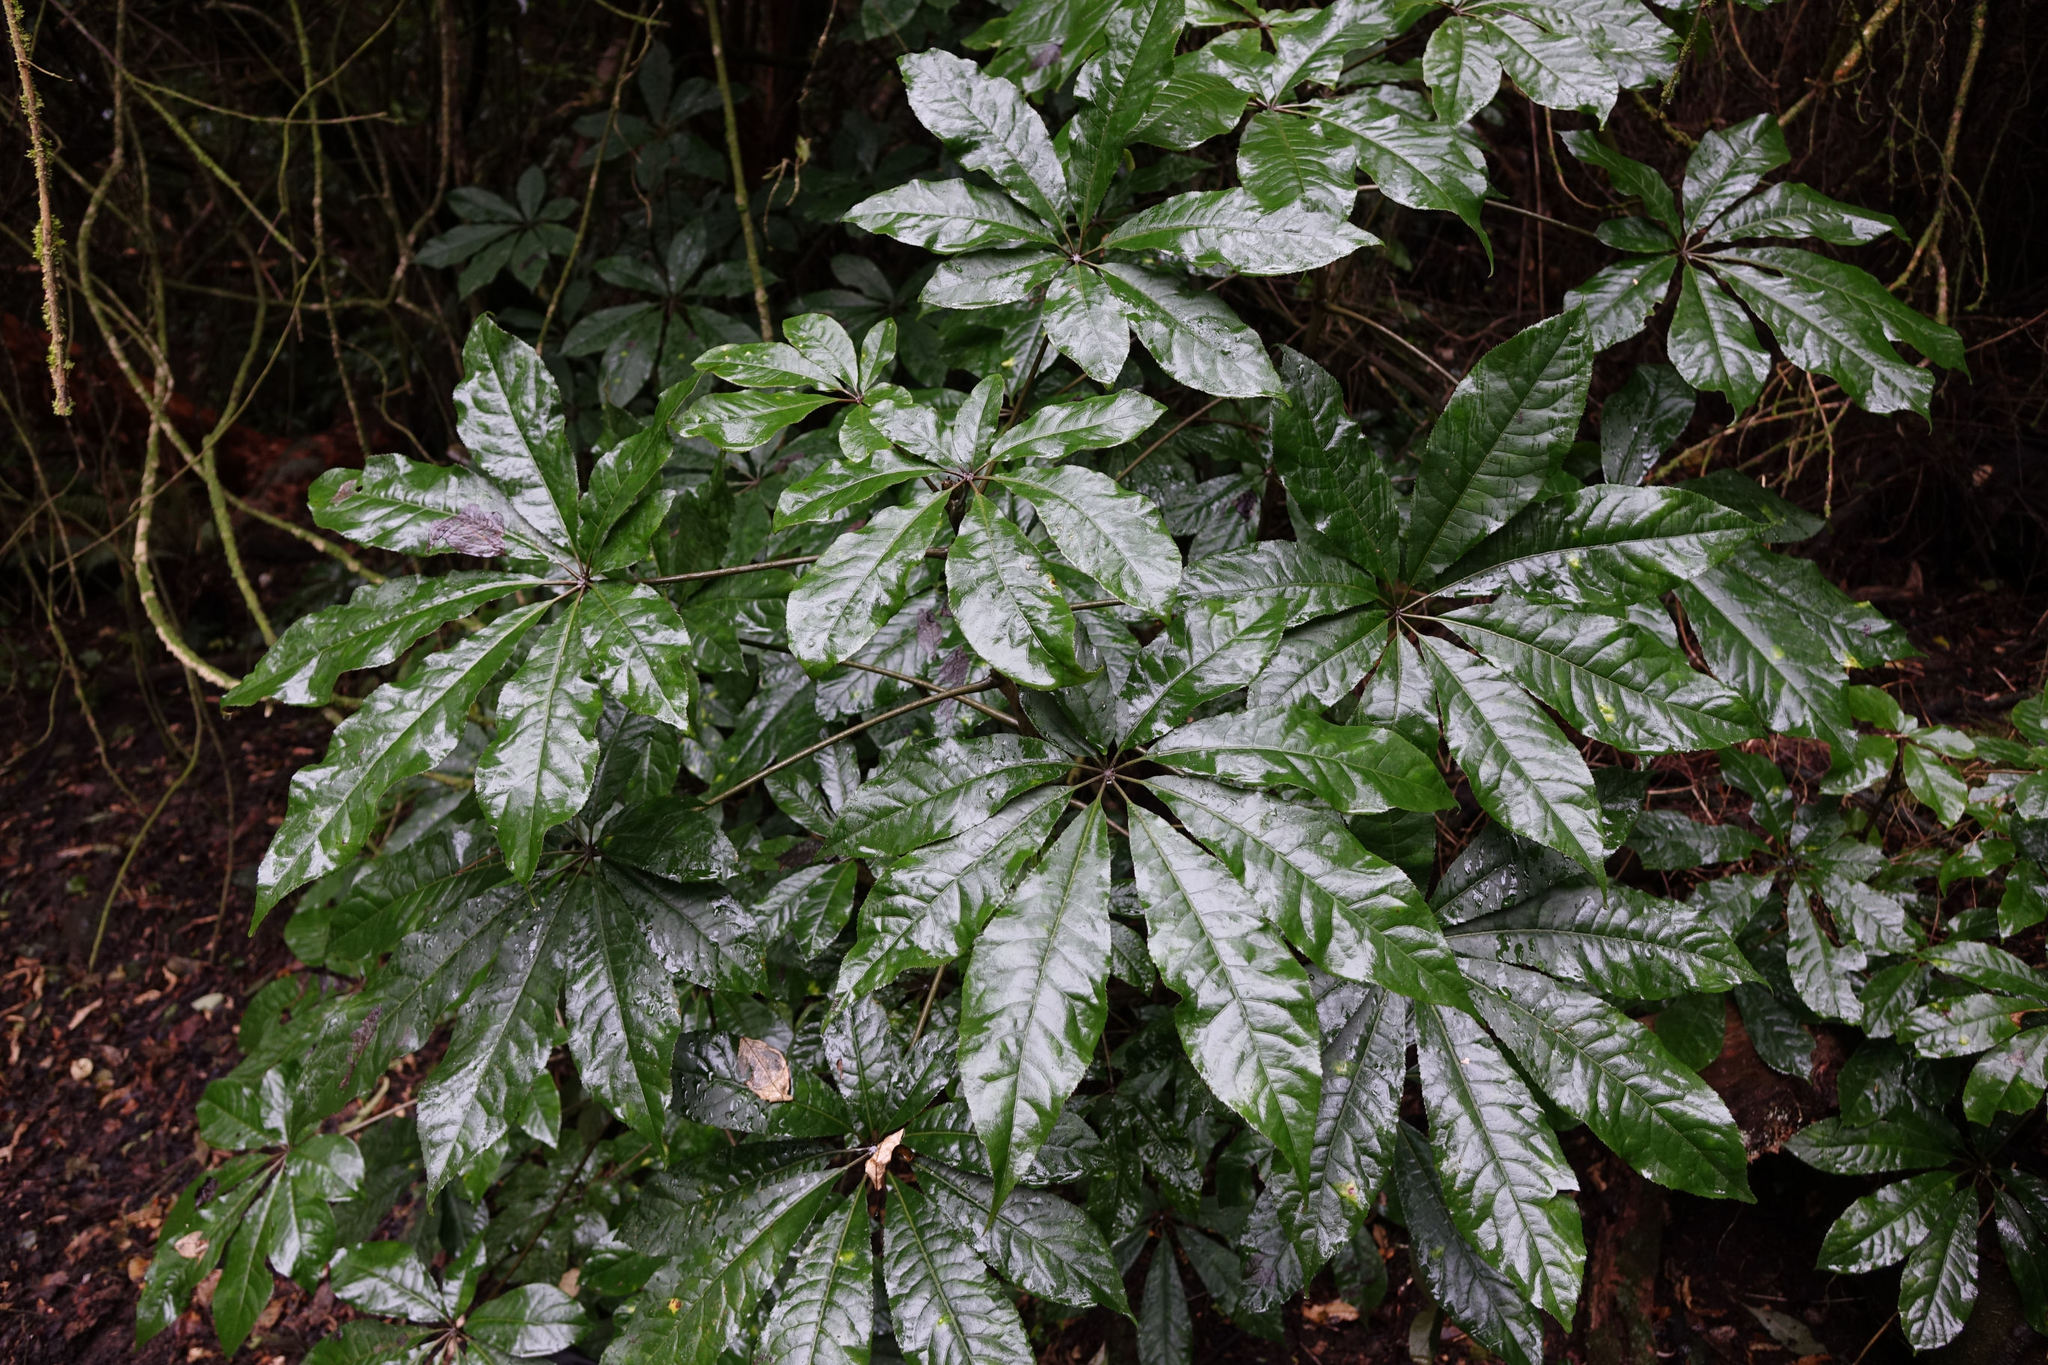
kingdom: Plantae
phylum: Tracheophyta
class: Magnoliopsida
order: Apiales
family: Araliaceae
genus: Schefflera
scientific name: Schefflera digitata
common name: Pate
